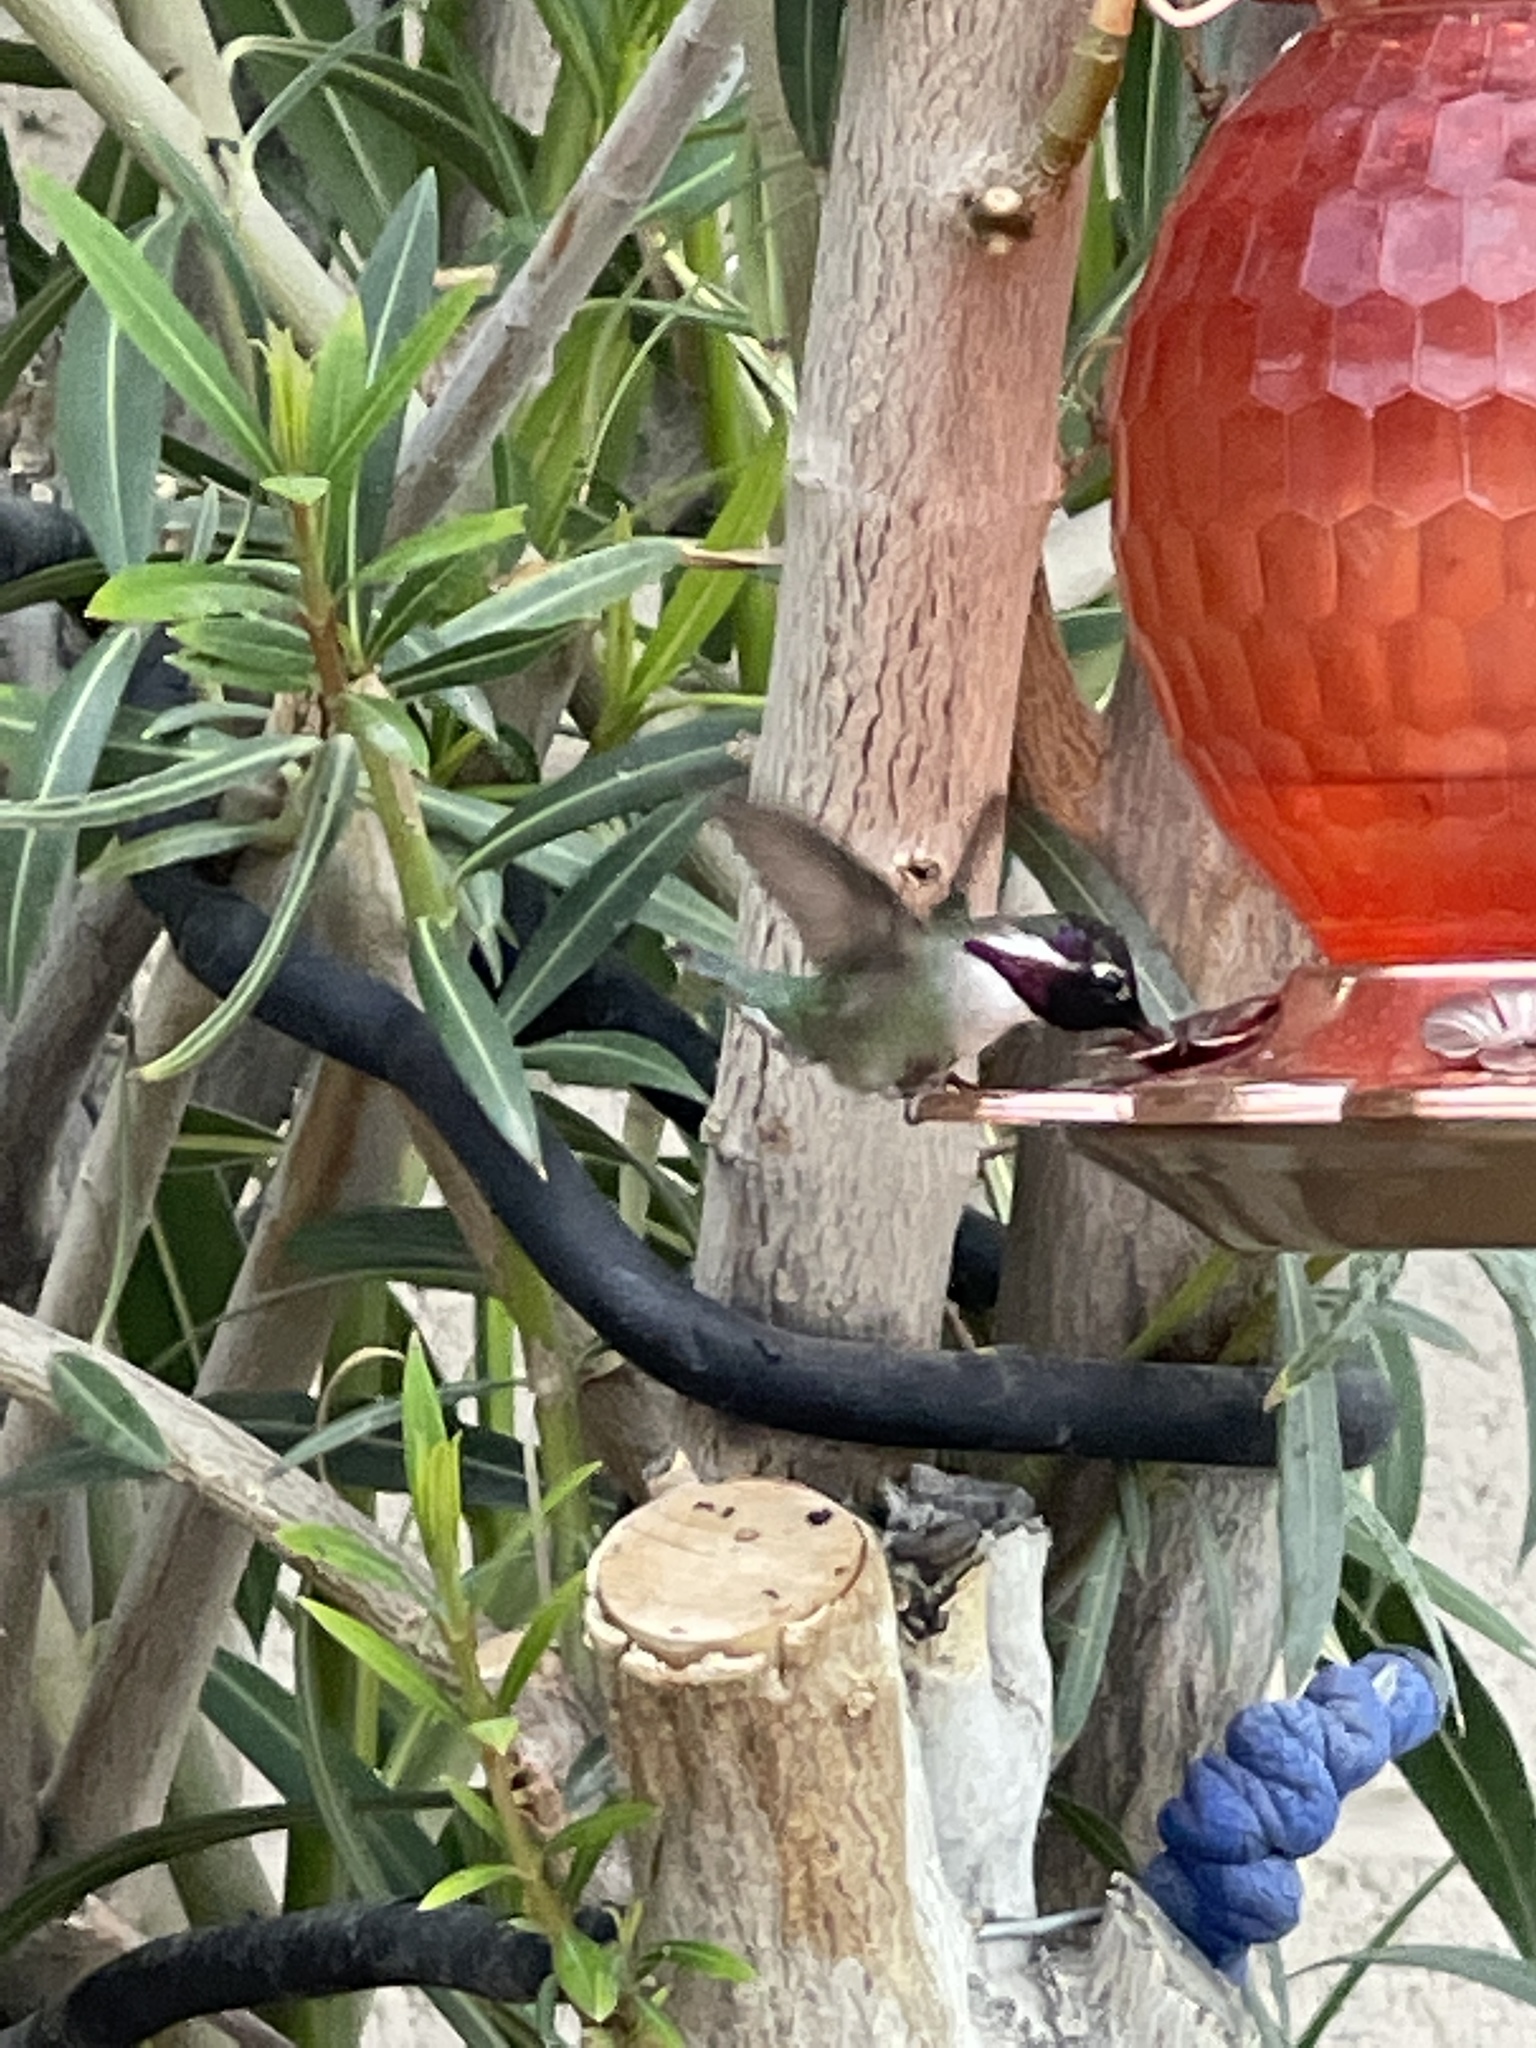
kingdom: Animalia
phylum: Chordata
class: Aves
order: Apodiformes
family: Trochilidae
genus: Calypte
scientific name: Calypte costae
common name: Costa's hummingbird
